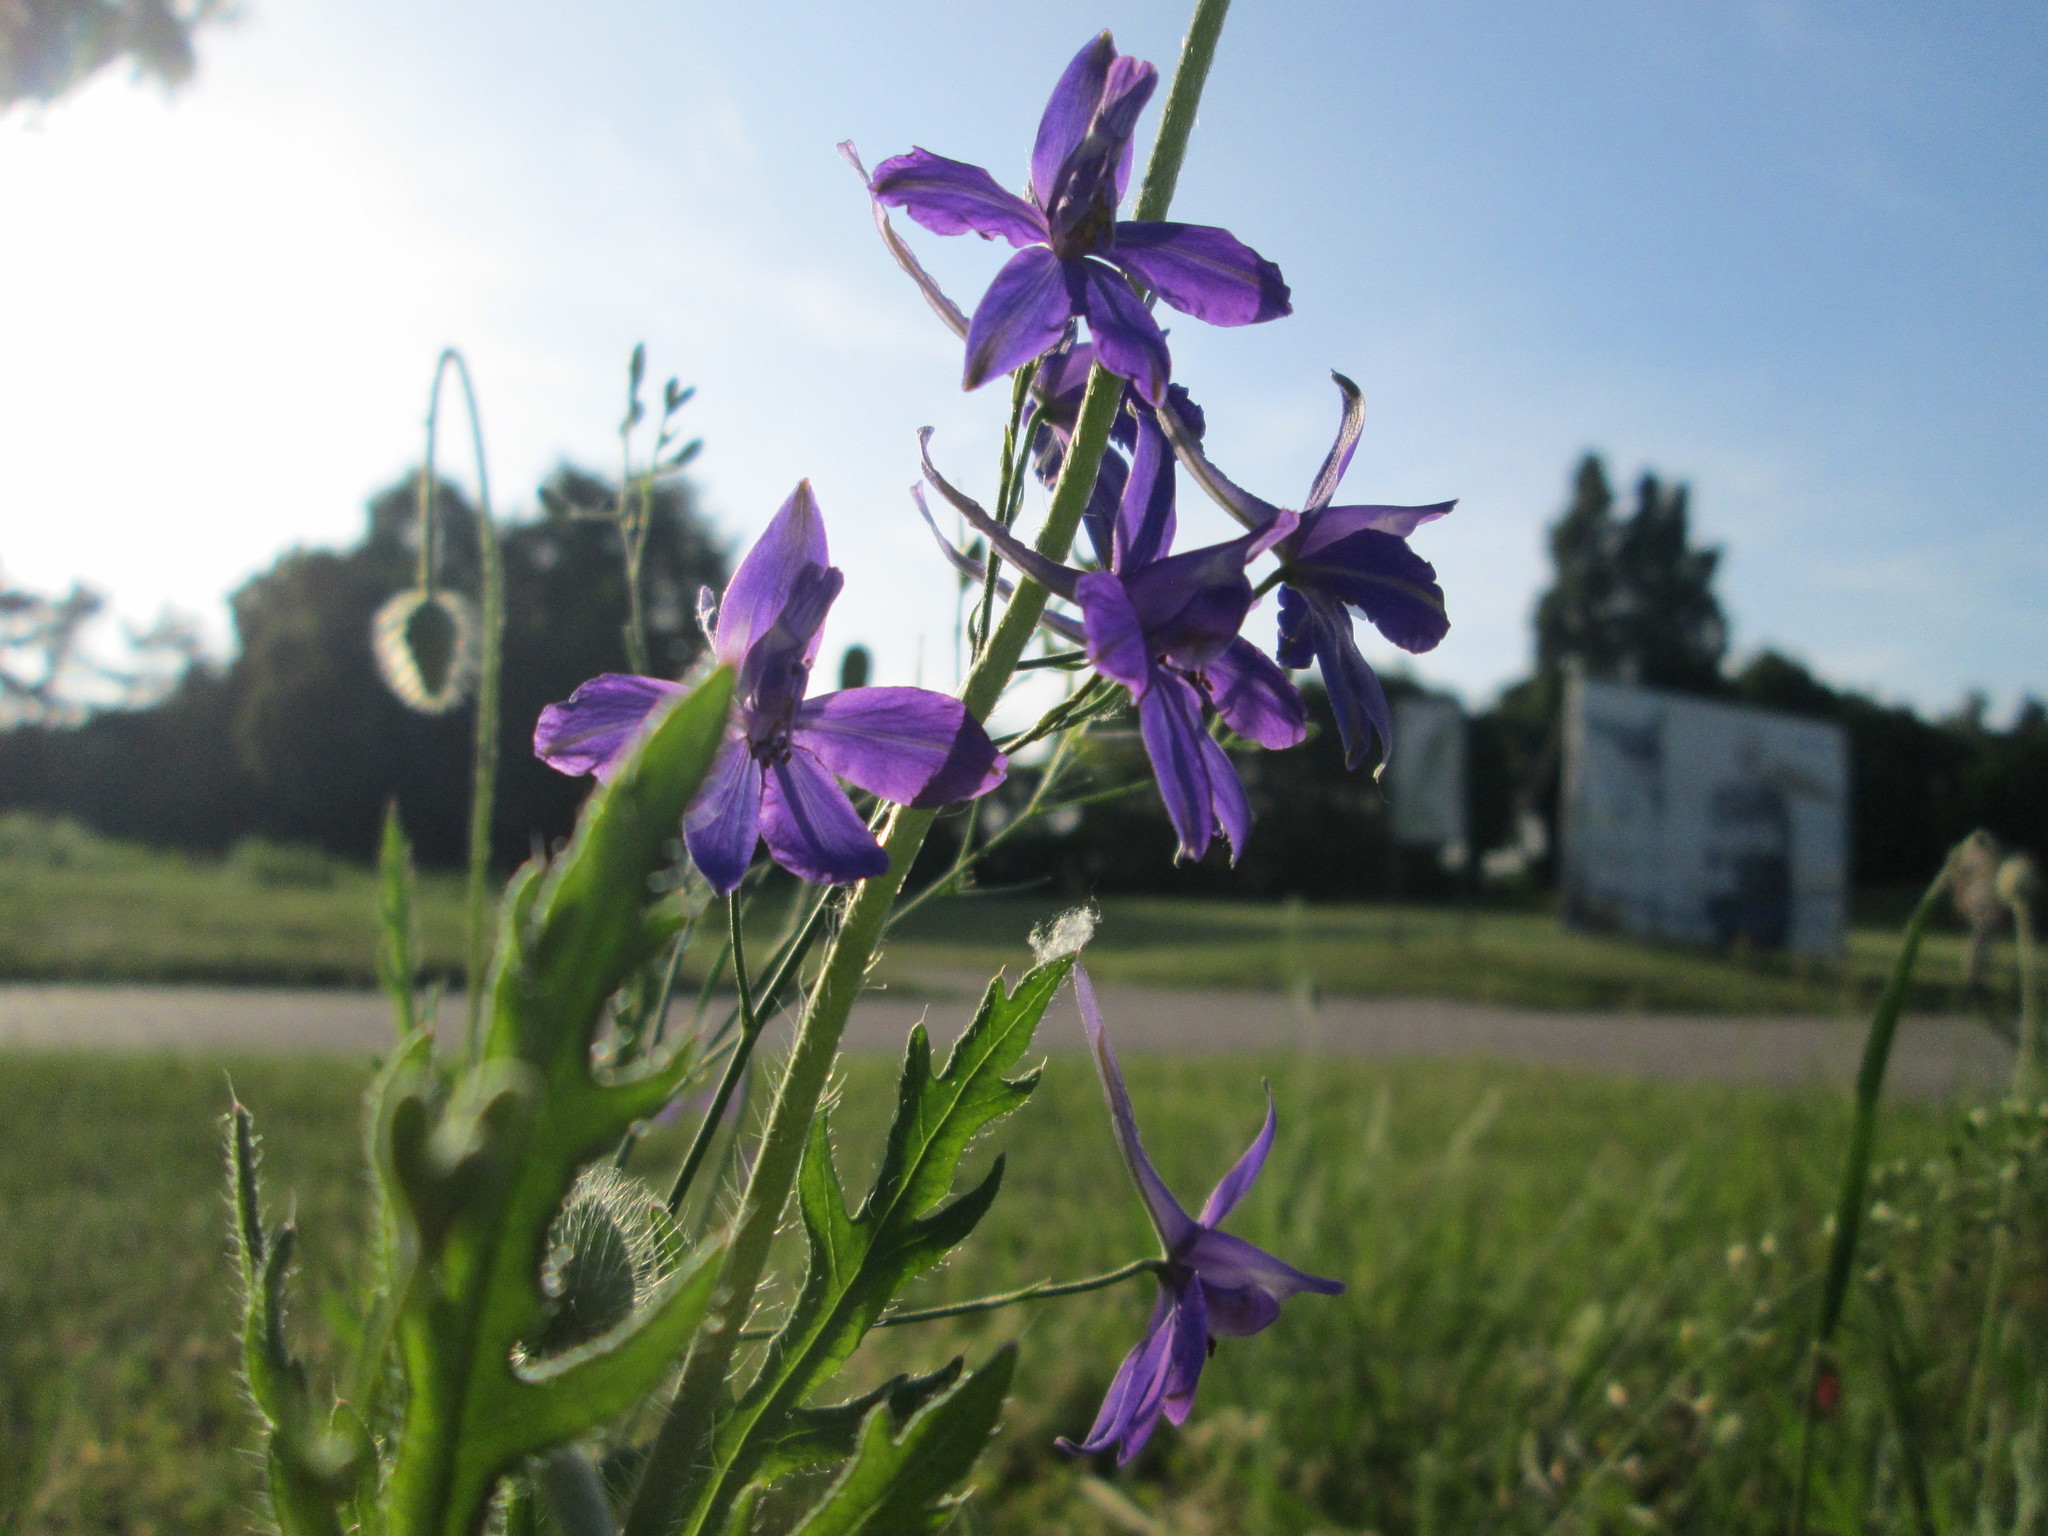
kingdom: Plantae
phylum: Tracheophyta
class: Magnoliopsida
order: Ranunculales
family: Ranunculaceae
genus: Delphinium
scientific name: Delphinium consolida
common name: Branching larkspur
